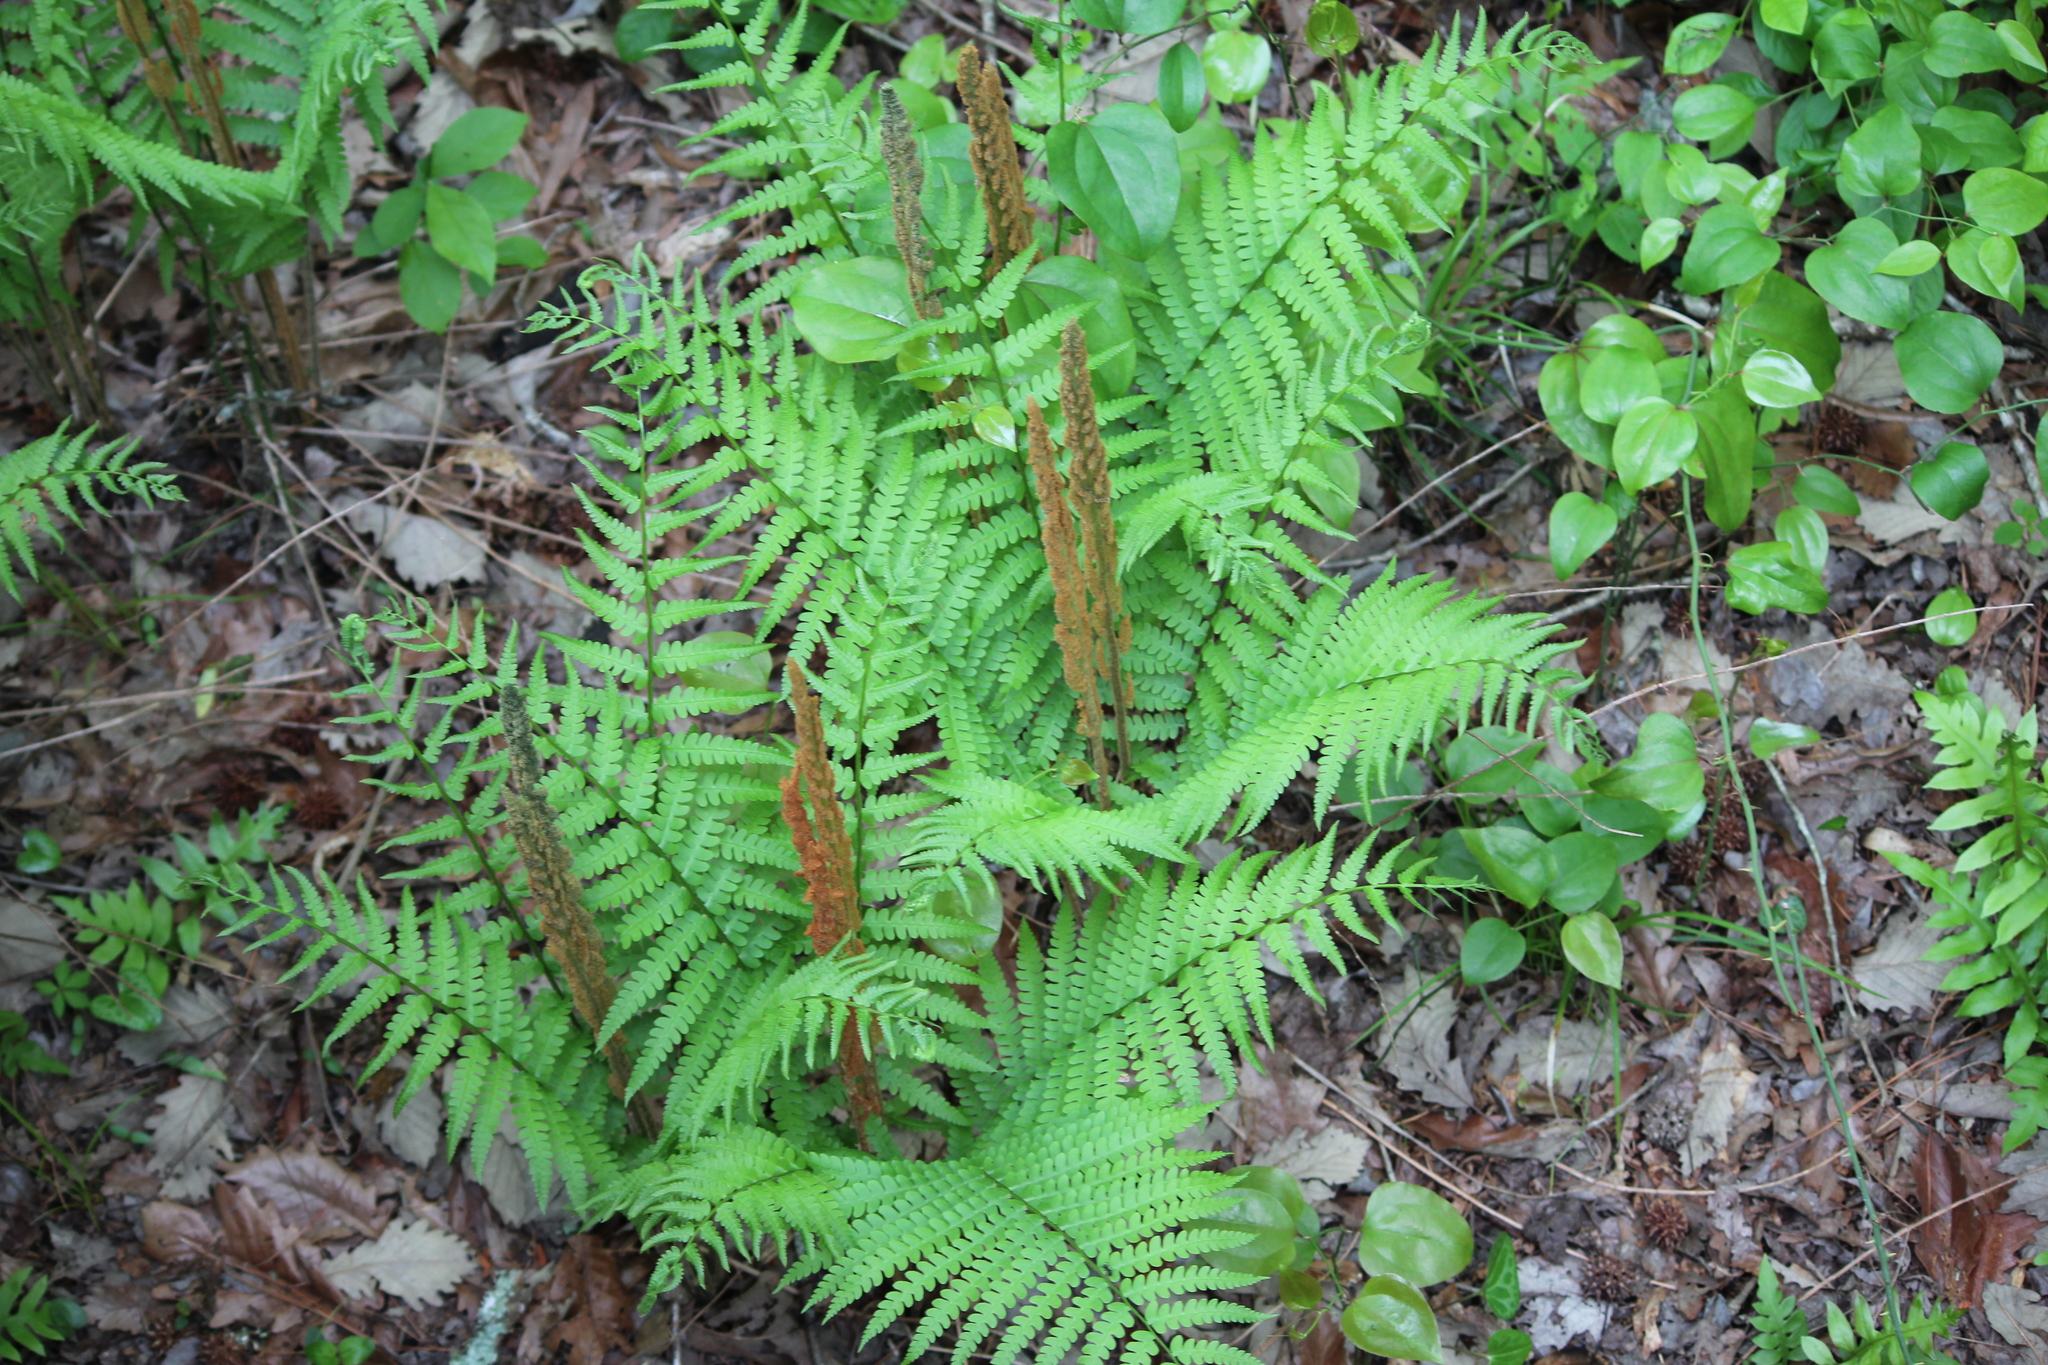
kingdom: Plantae
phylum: Tracheophyta
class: Polypodiopsida
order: Osmundales
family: Osmundaceae
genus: Osmundastrum
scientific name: Osmundastrum cinnamomeum
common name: Cinnamon fern
